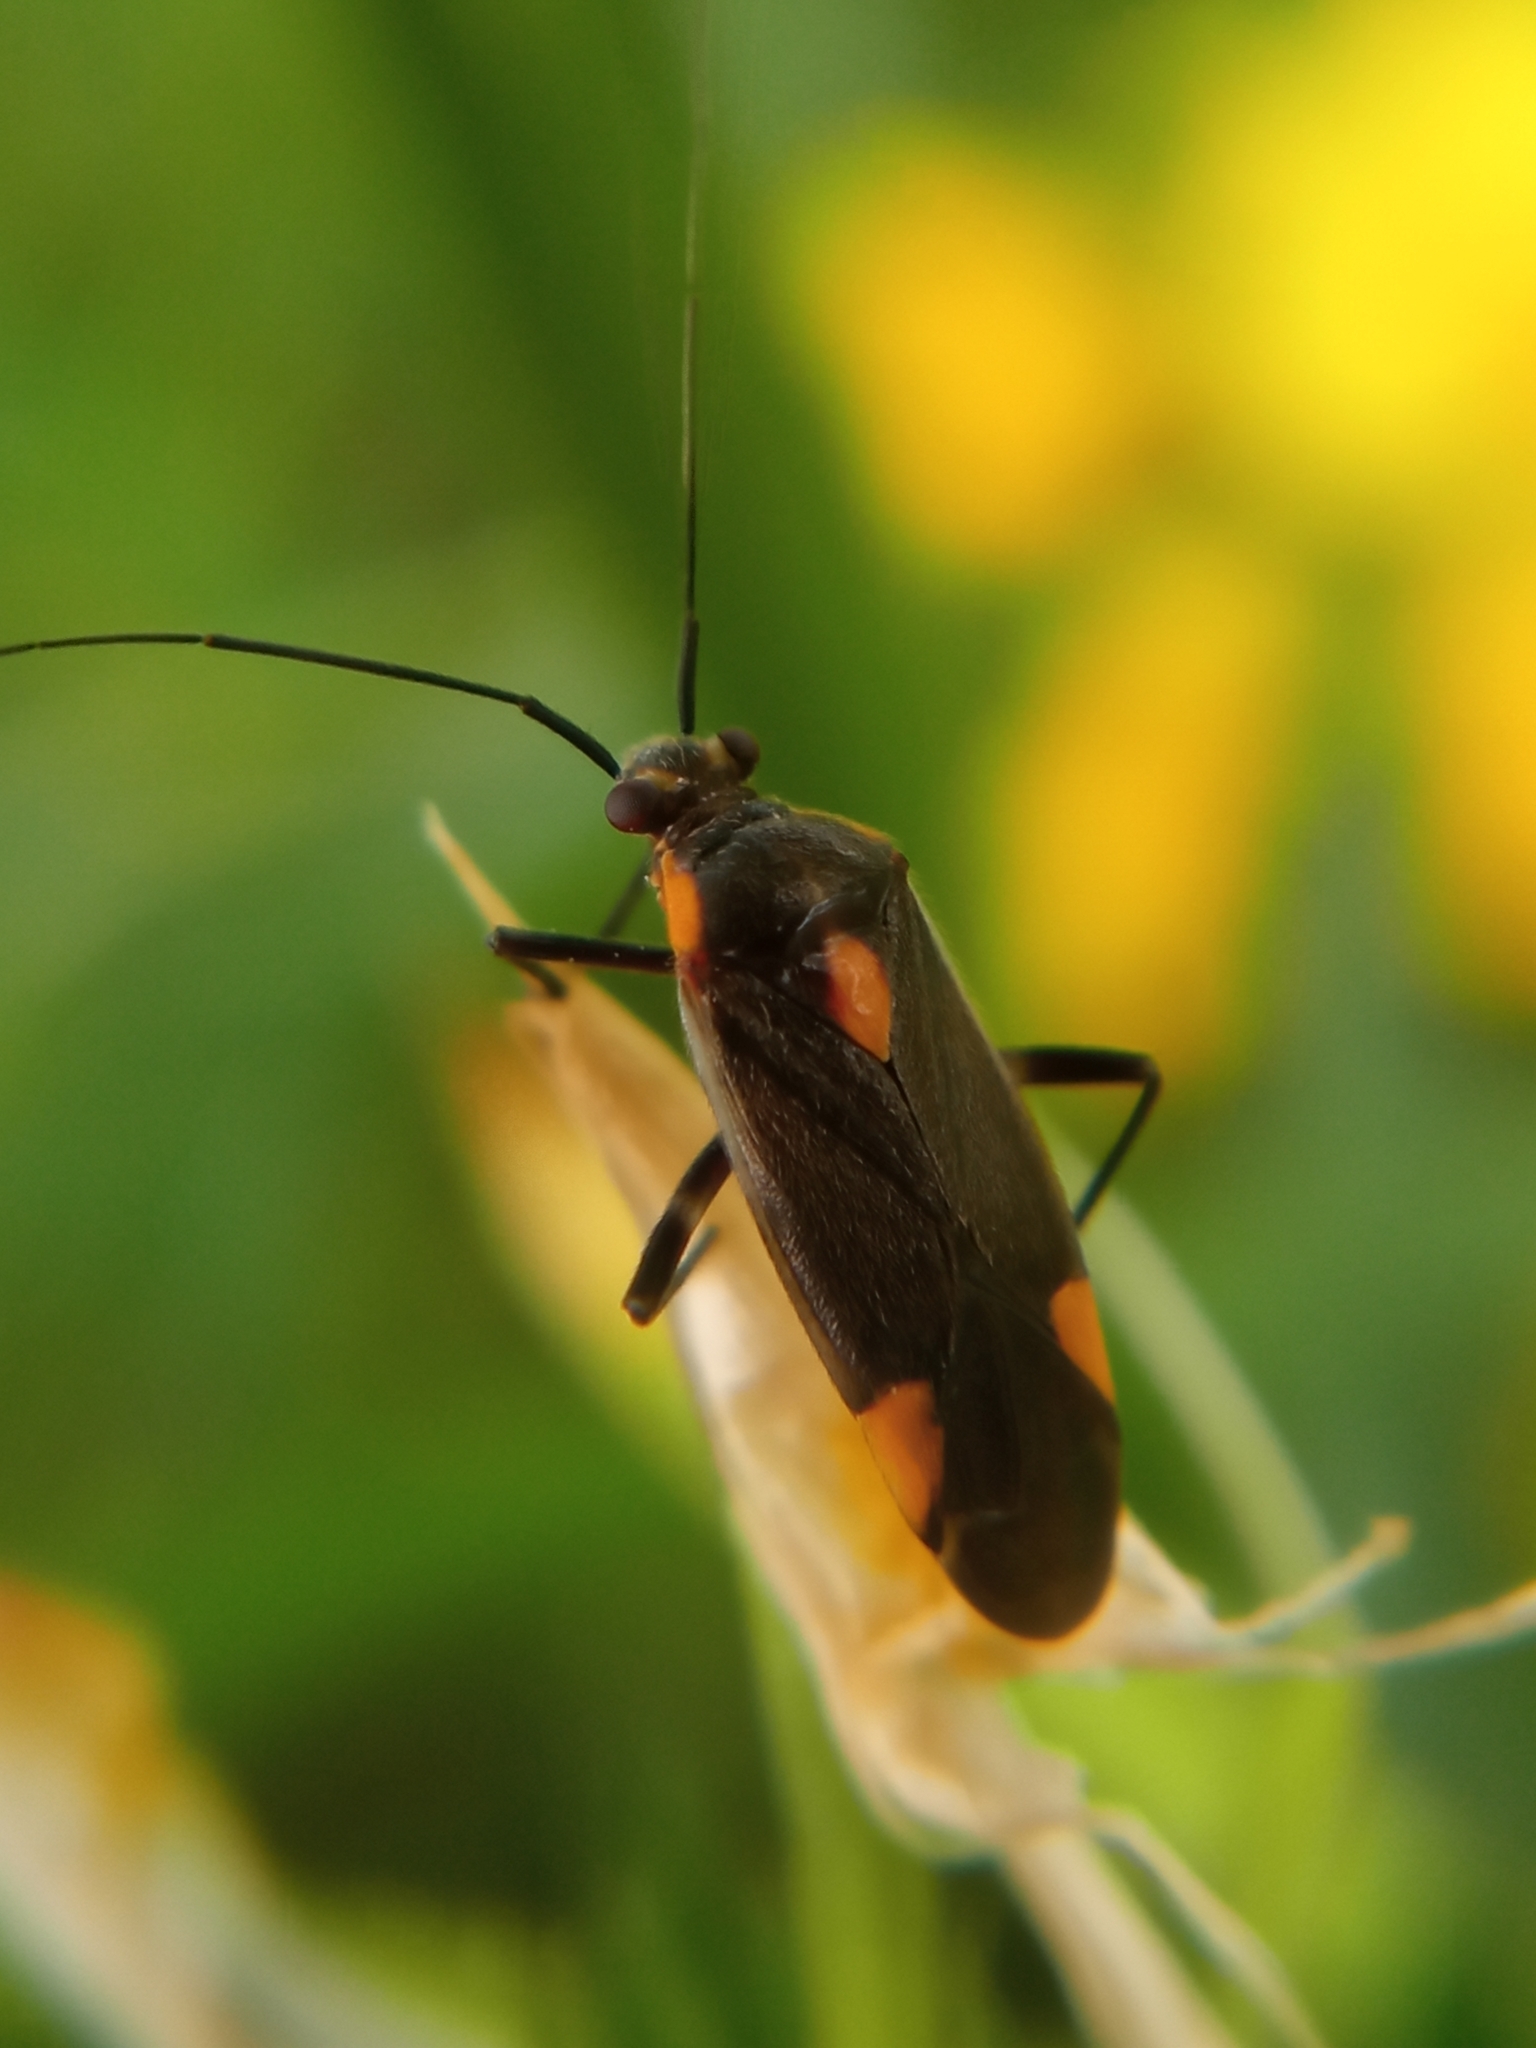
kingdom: Animalia
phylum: Arthropoda
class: Insecta
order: Hemiptera
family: Miridae
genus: Capsodes
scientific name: Capsodes flavomarginatus
